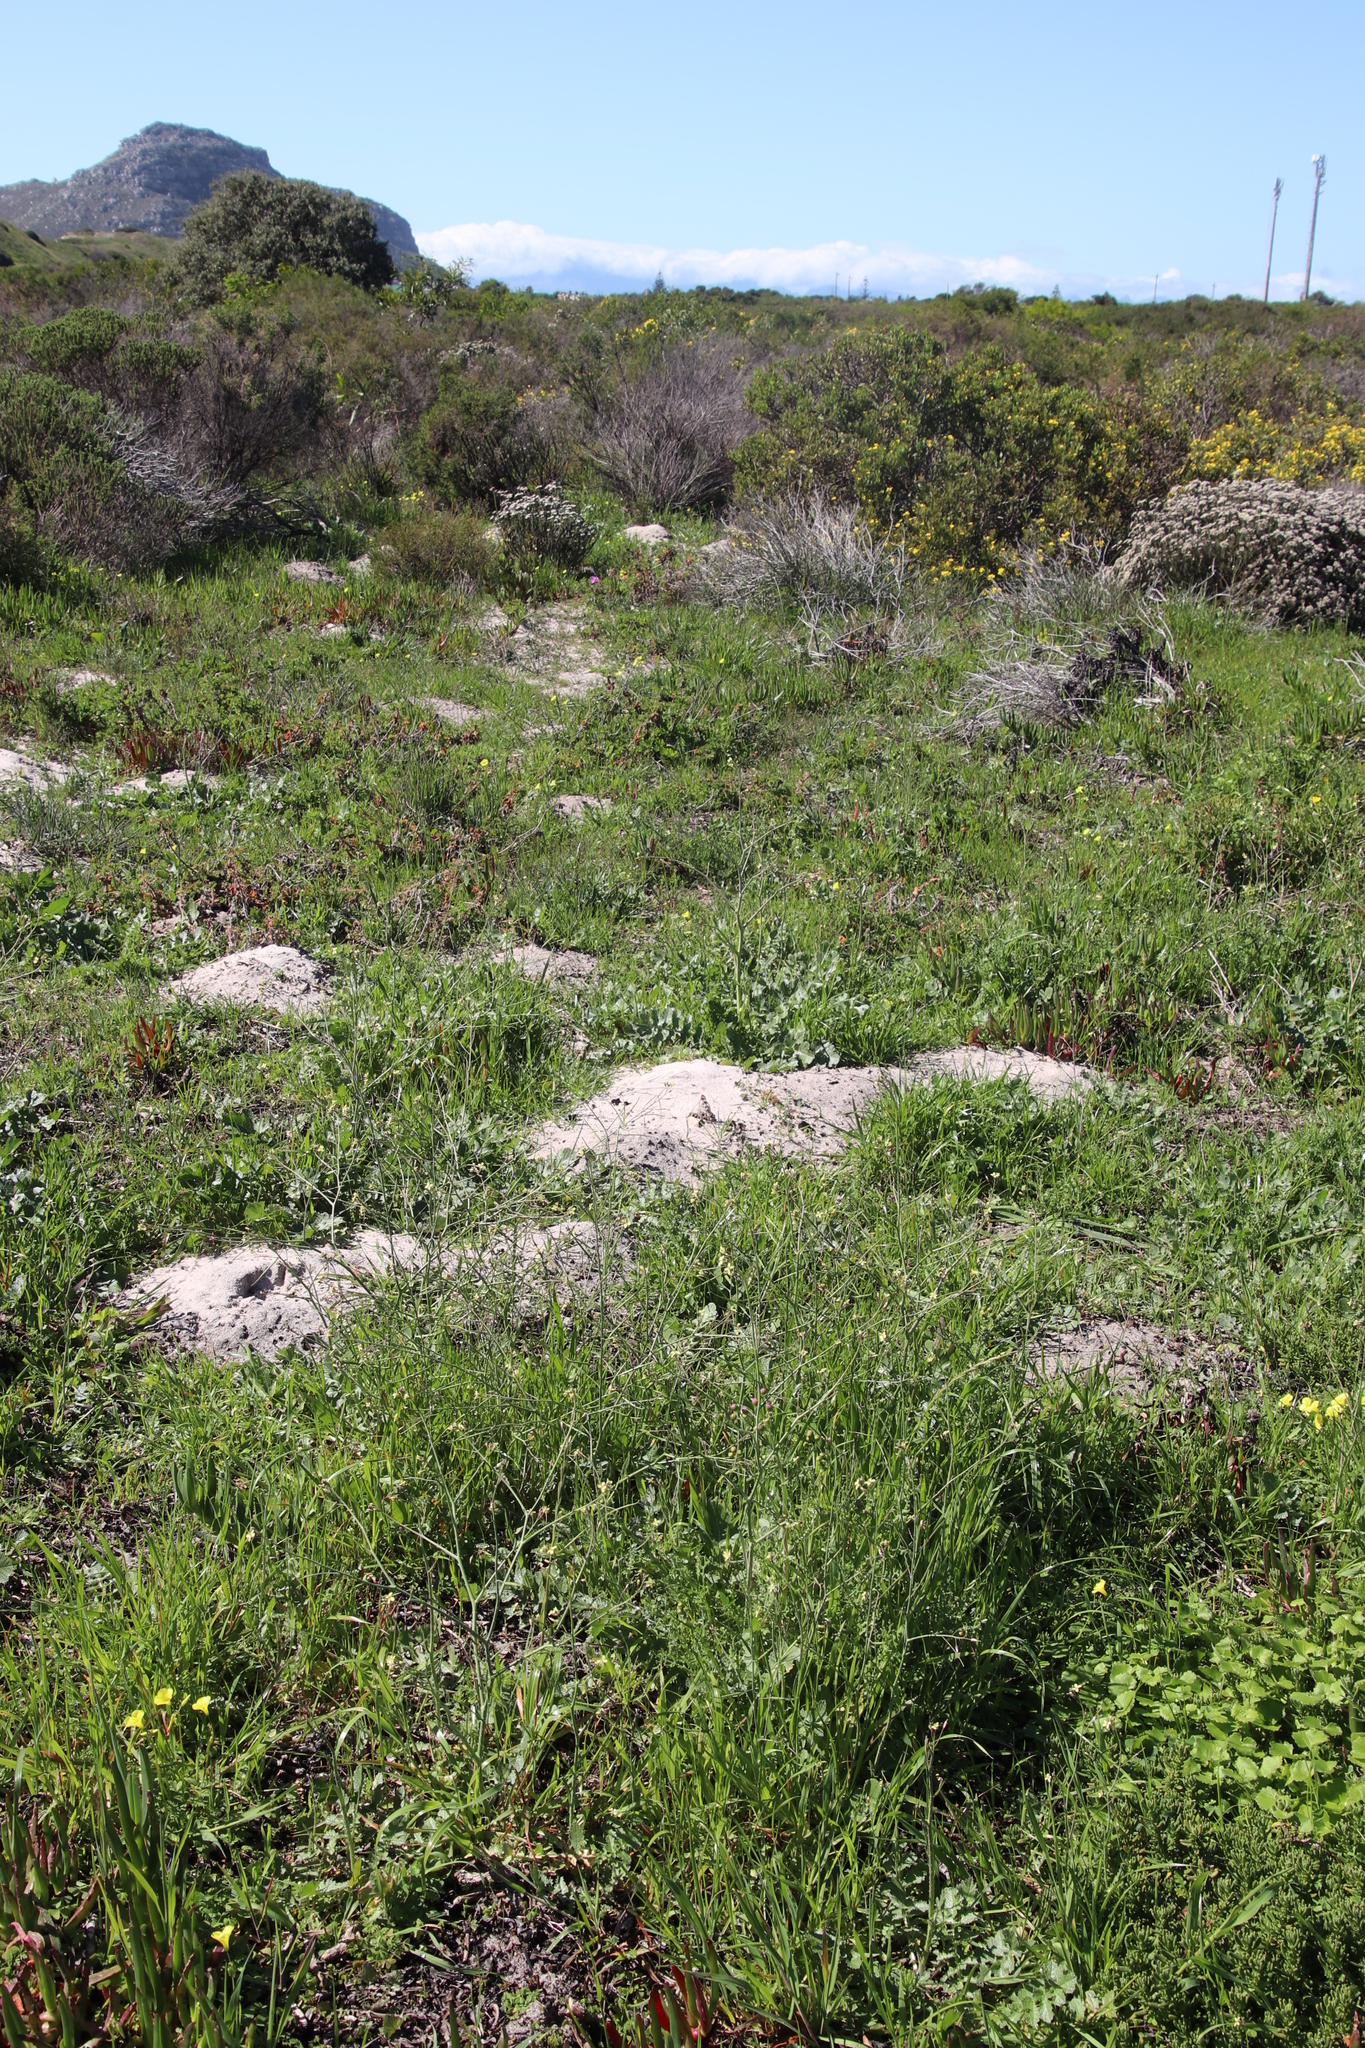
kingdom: Animalia
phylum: Chordata
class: Mammalia
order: Rodentia
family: Bathyergidae
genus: Bathyergus
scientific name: Bathyergus suillus
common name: Cape dune mole rat
